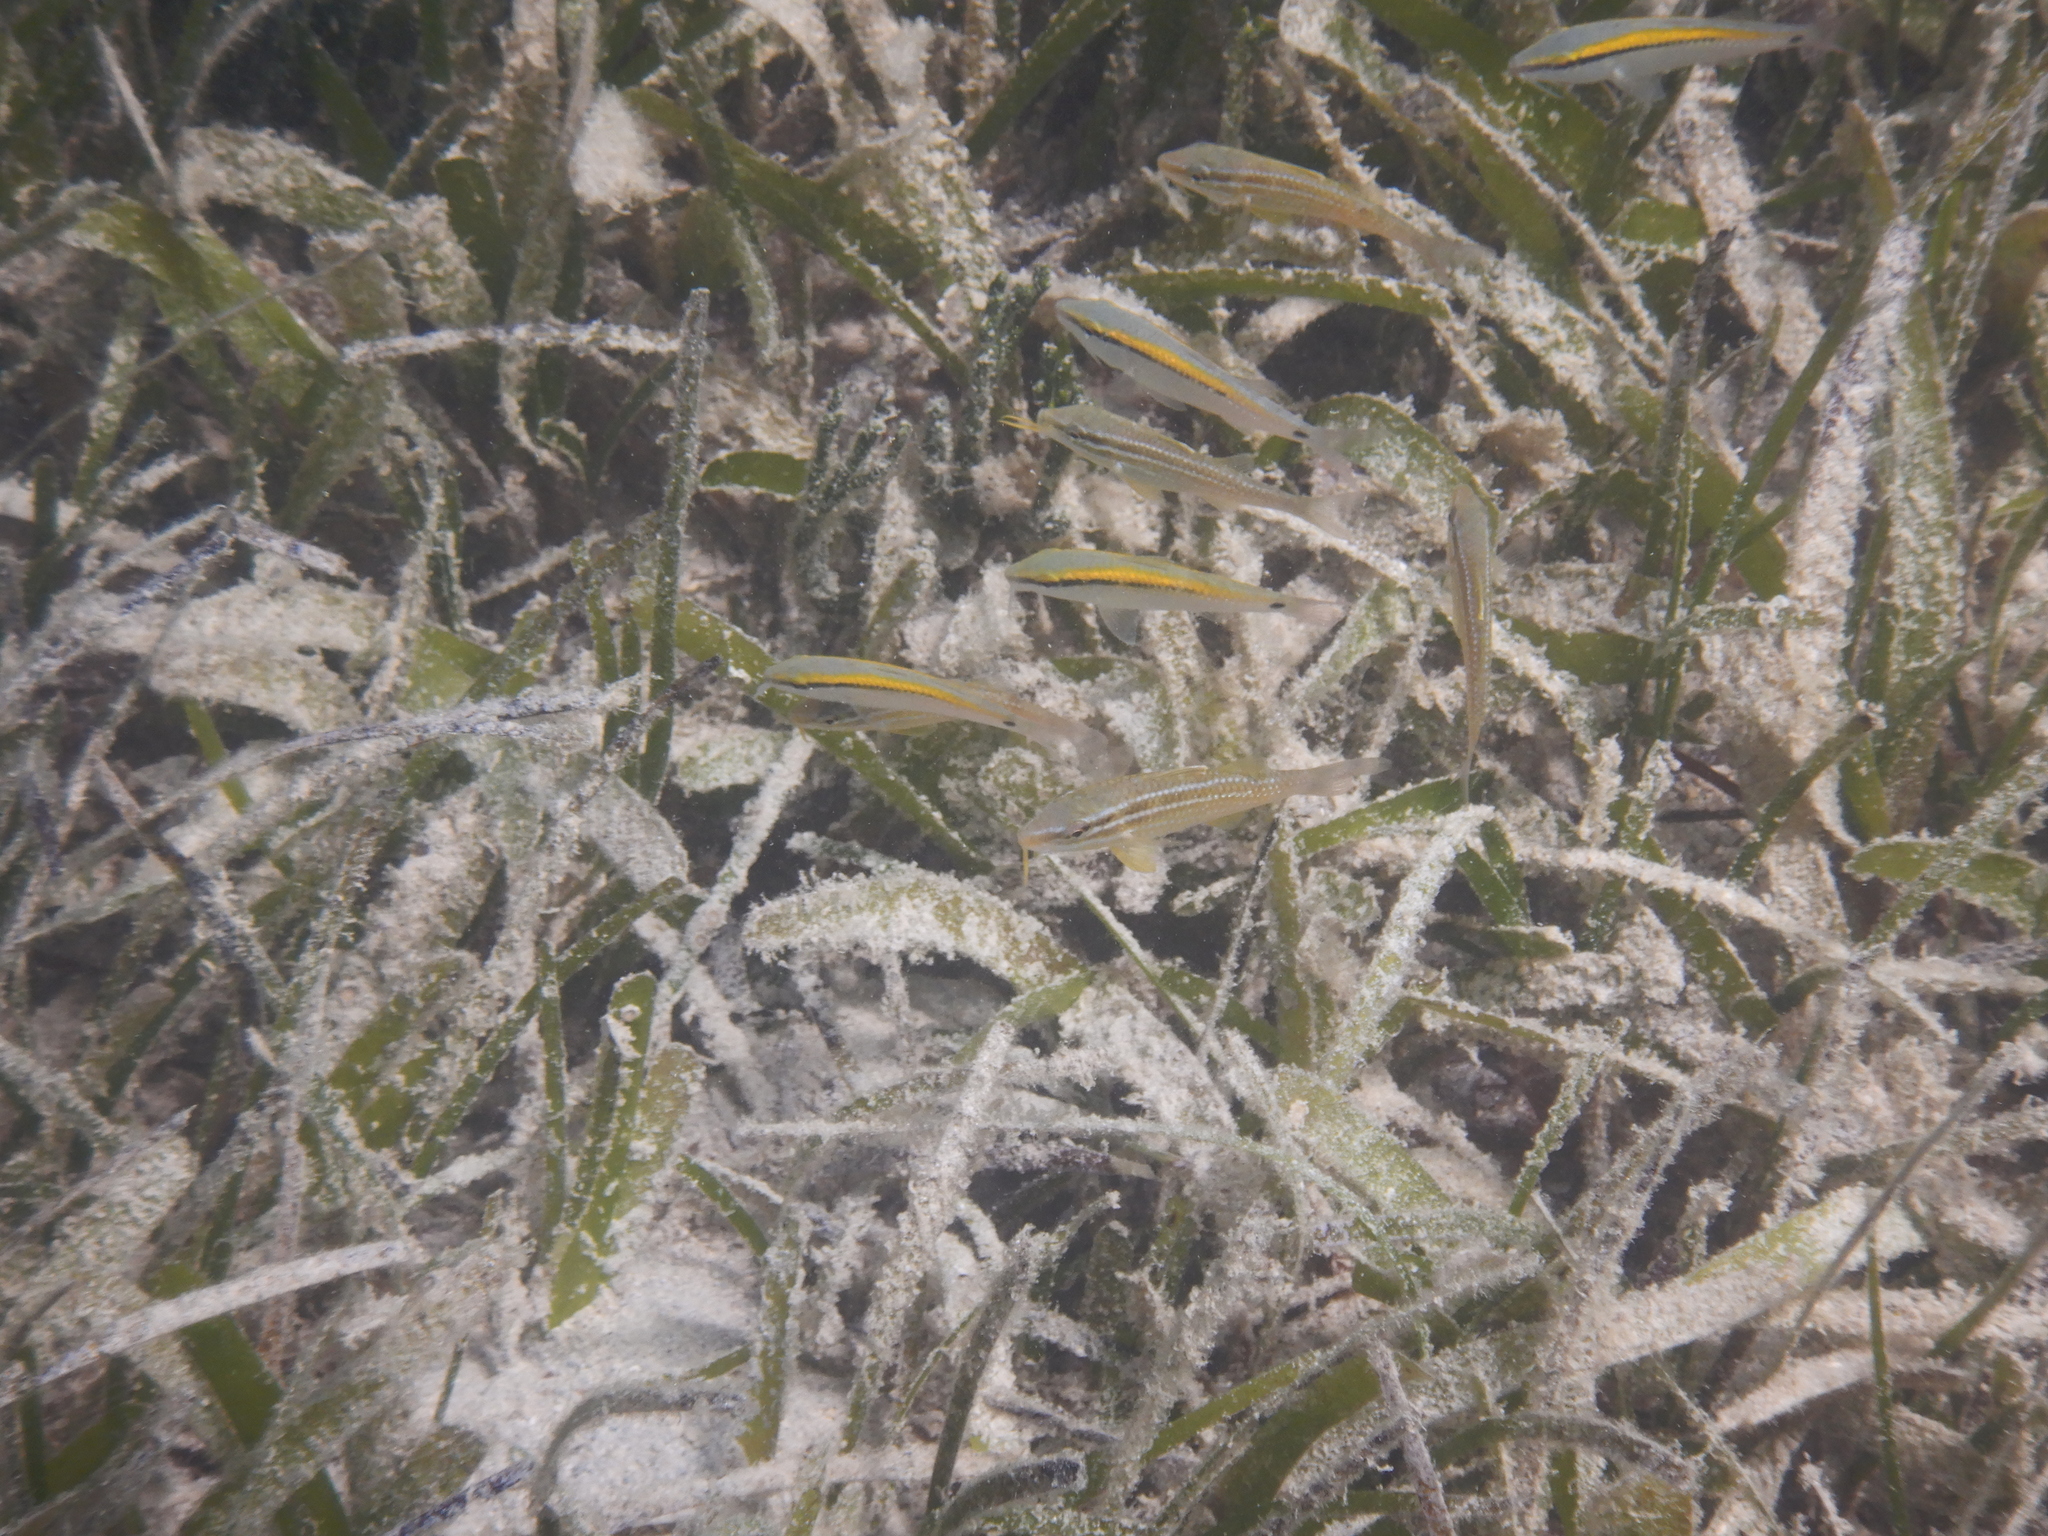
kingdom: Animalia
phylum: Chordata
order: Perciformes
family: Mullidae
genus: Parupeneus
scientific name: Parupeneus barberinus
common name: Dash-and-dot goatfish
